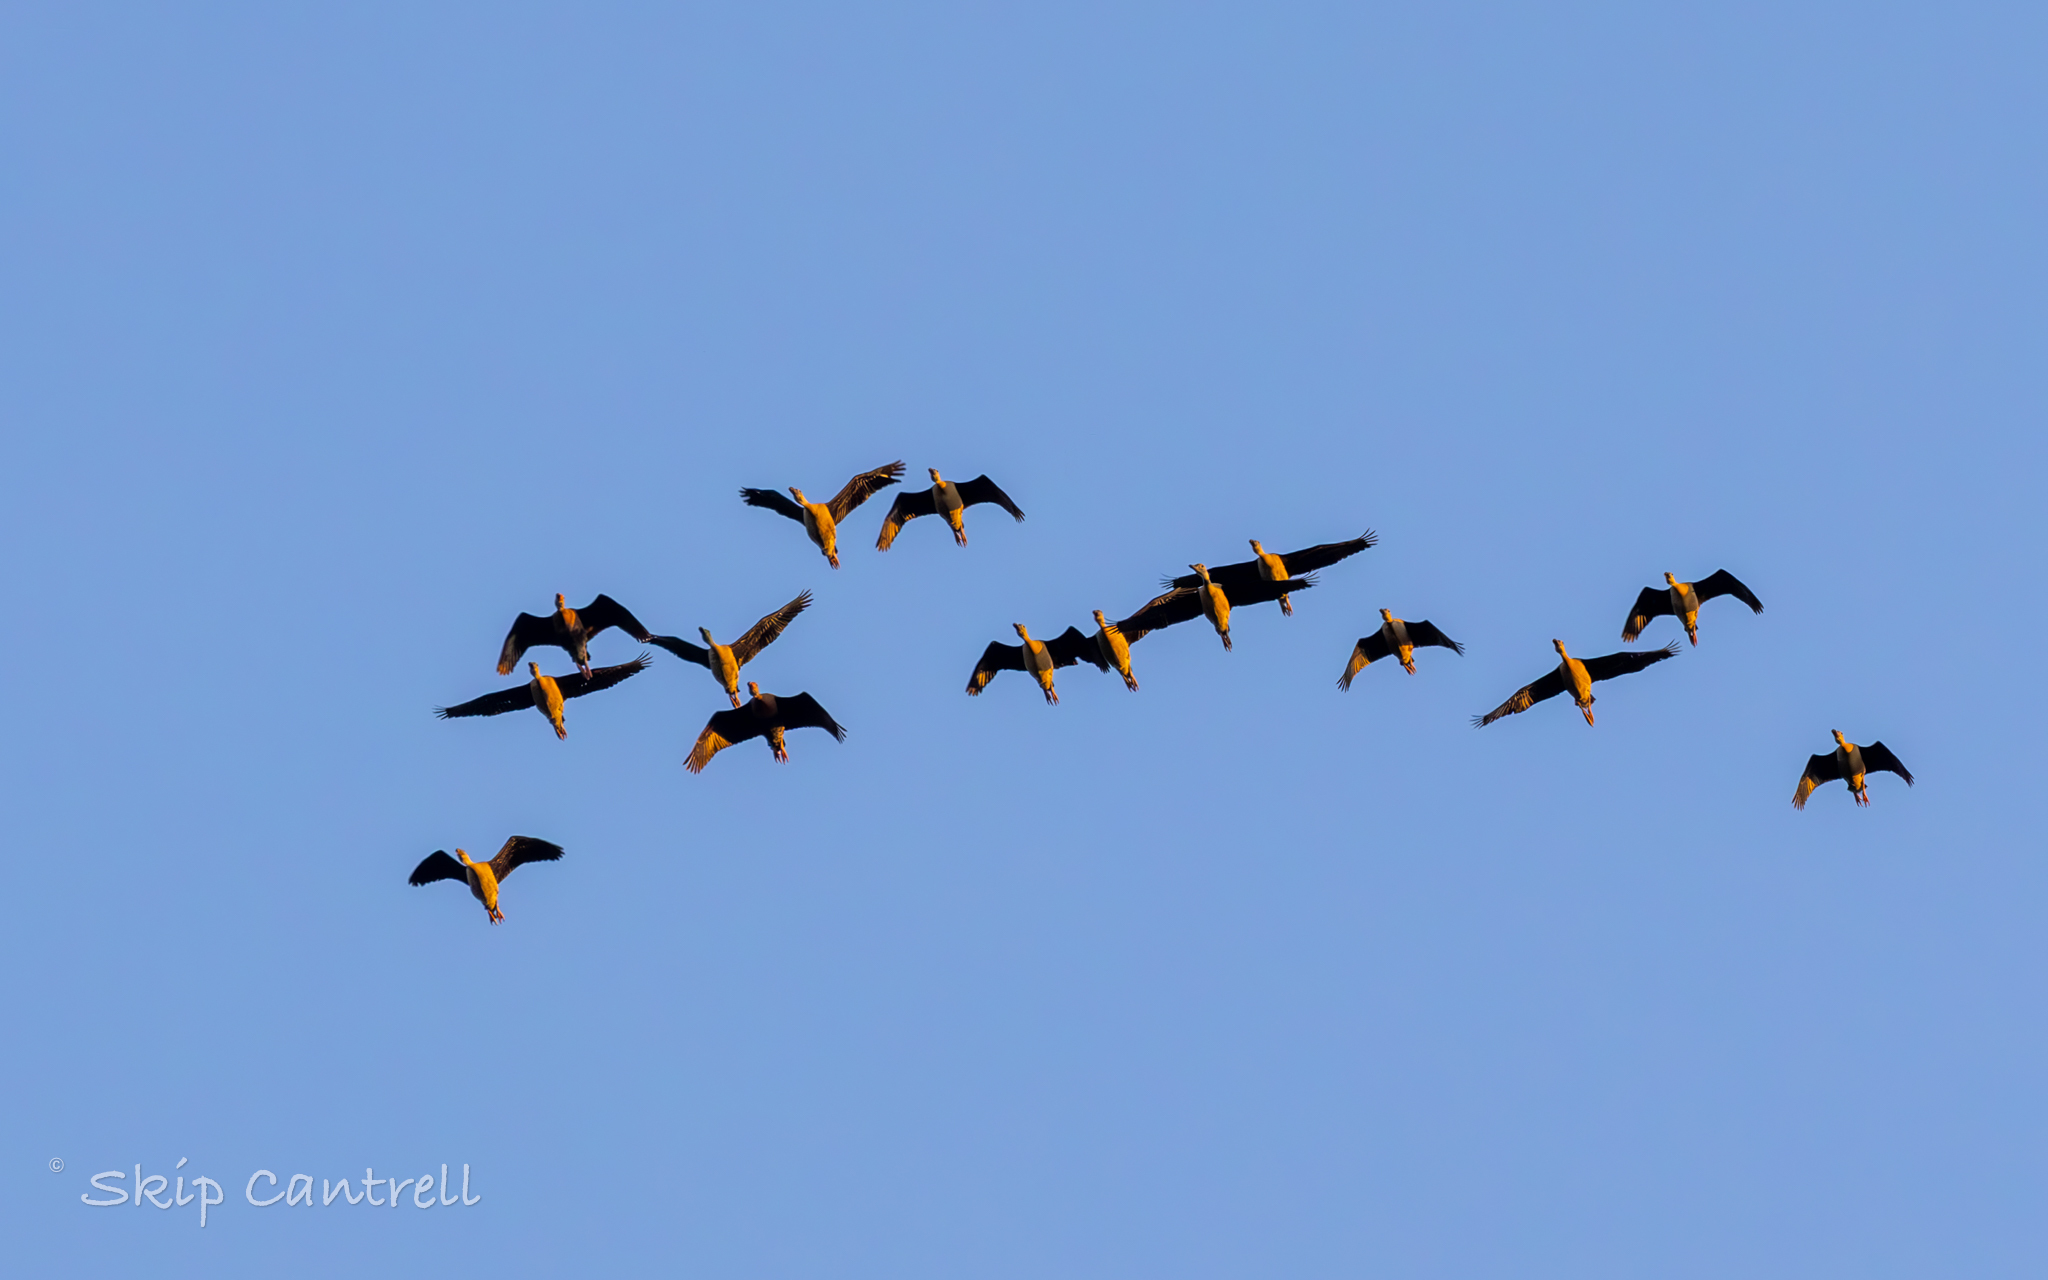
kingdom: Animalia
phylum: Chordata
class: Aves
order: Anseriformes
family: Anatidae
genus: Dendrocygna
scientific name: Dendrocygna bicolor
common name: Fulvous whistling duck
